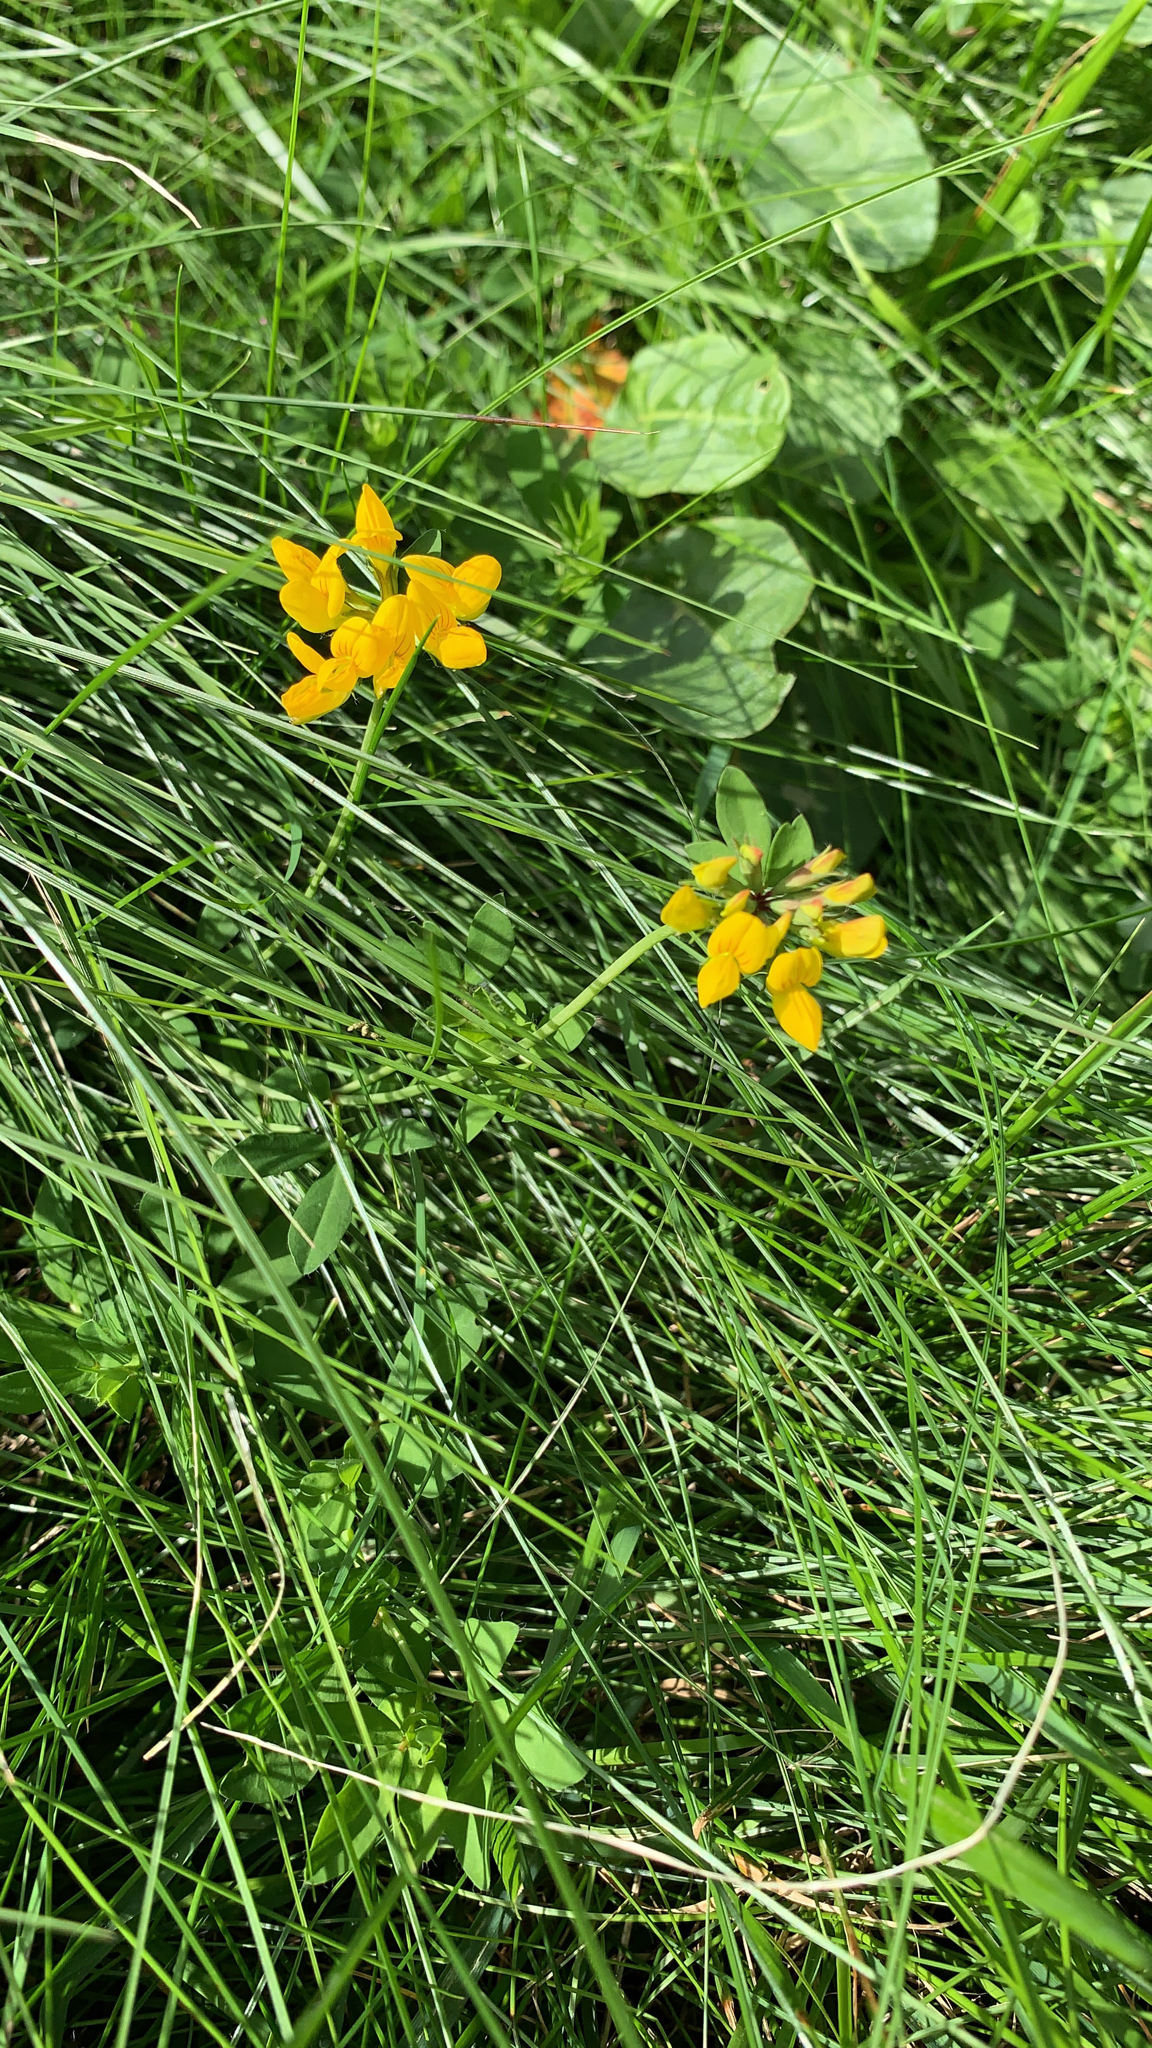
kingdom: Plantae
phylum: Tracheophyta
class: Magnoliopsida
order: Fabales
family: Fabaceae
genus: Lotus
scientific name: Lotus corniculatus
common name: Common bird's-foot-trefoil
